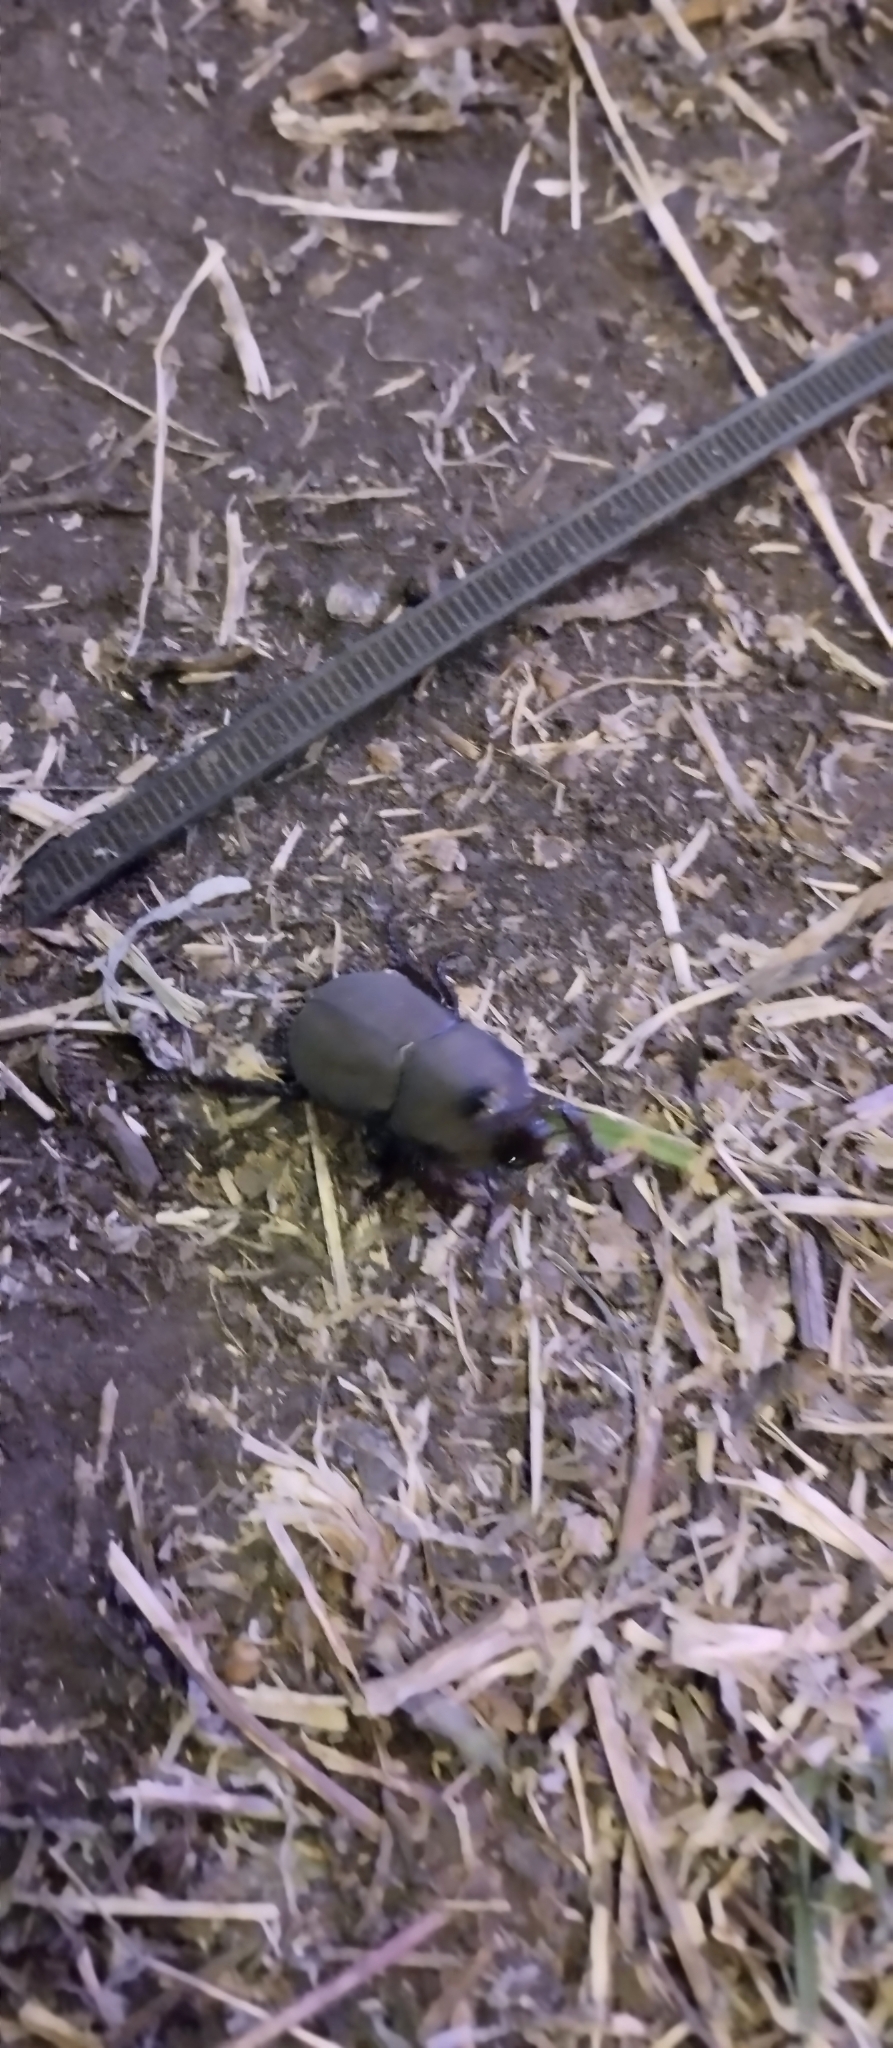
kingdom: Animalia
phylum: Arthropoda
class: Insecta
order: Coleoptera
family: Scarabaeidae
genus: Diloboderus
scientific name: Diloboderus abderus
